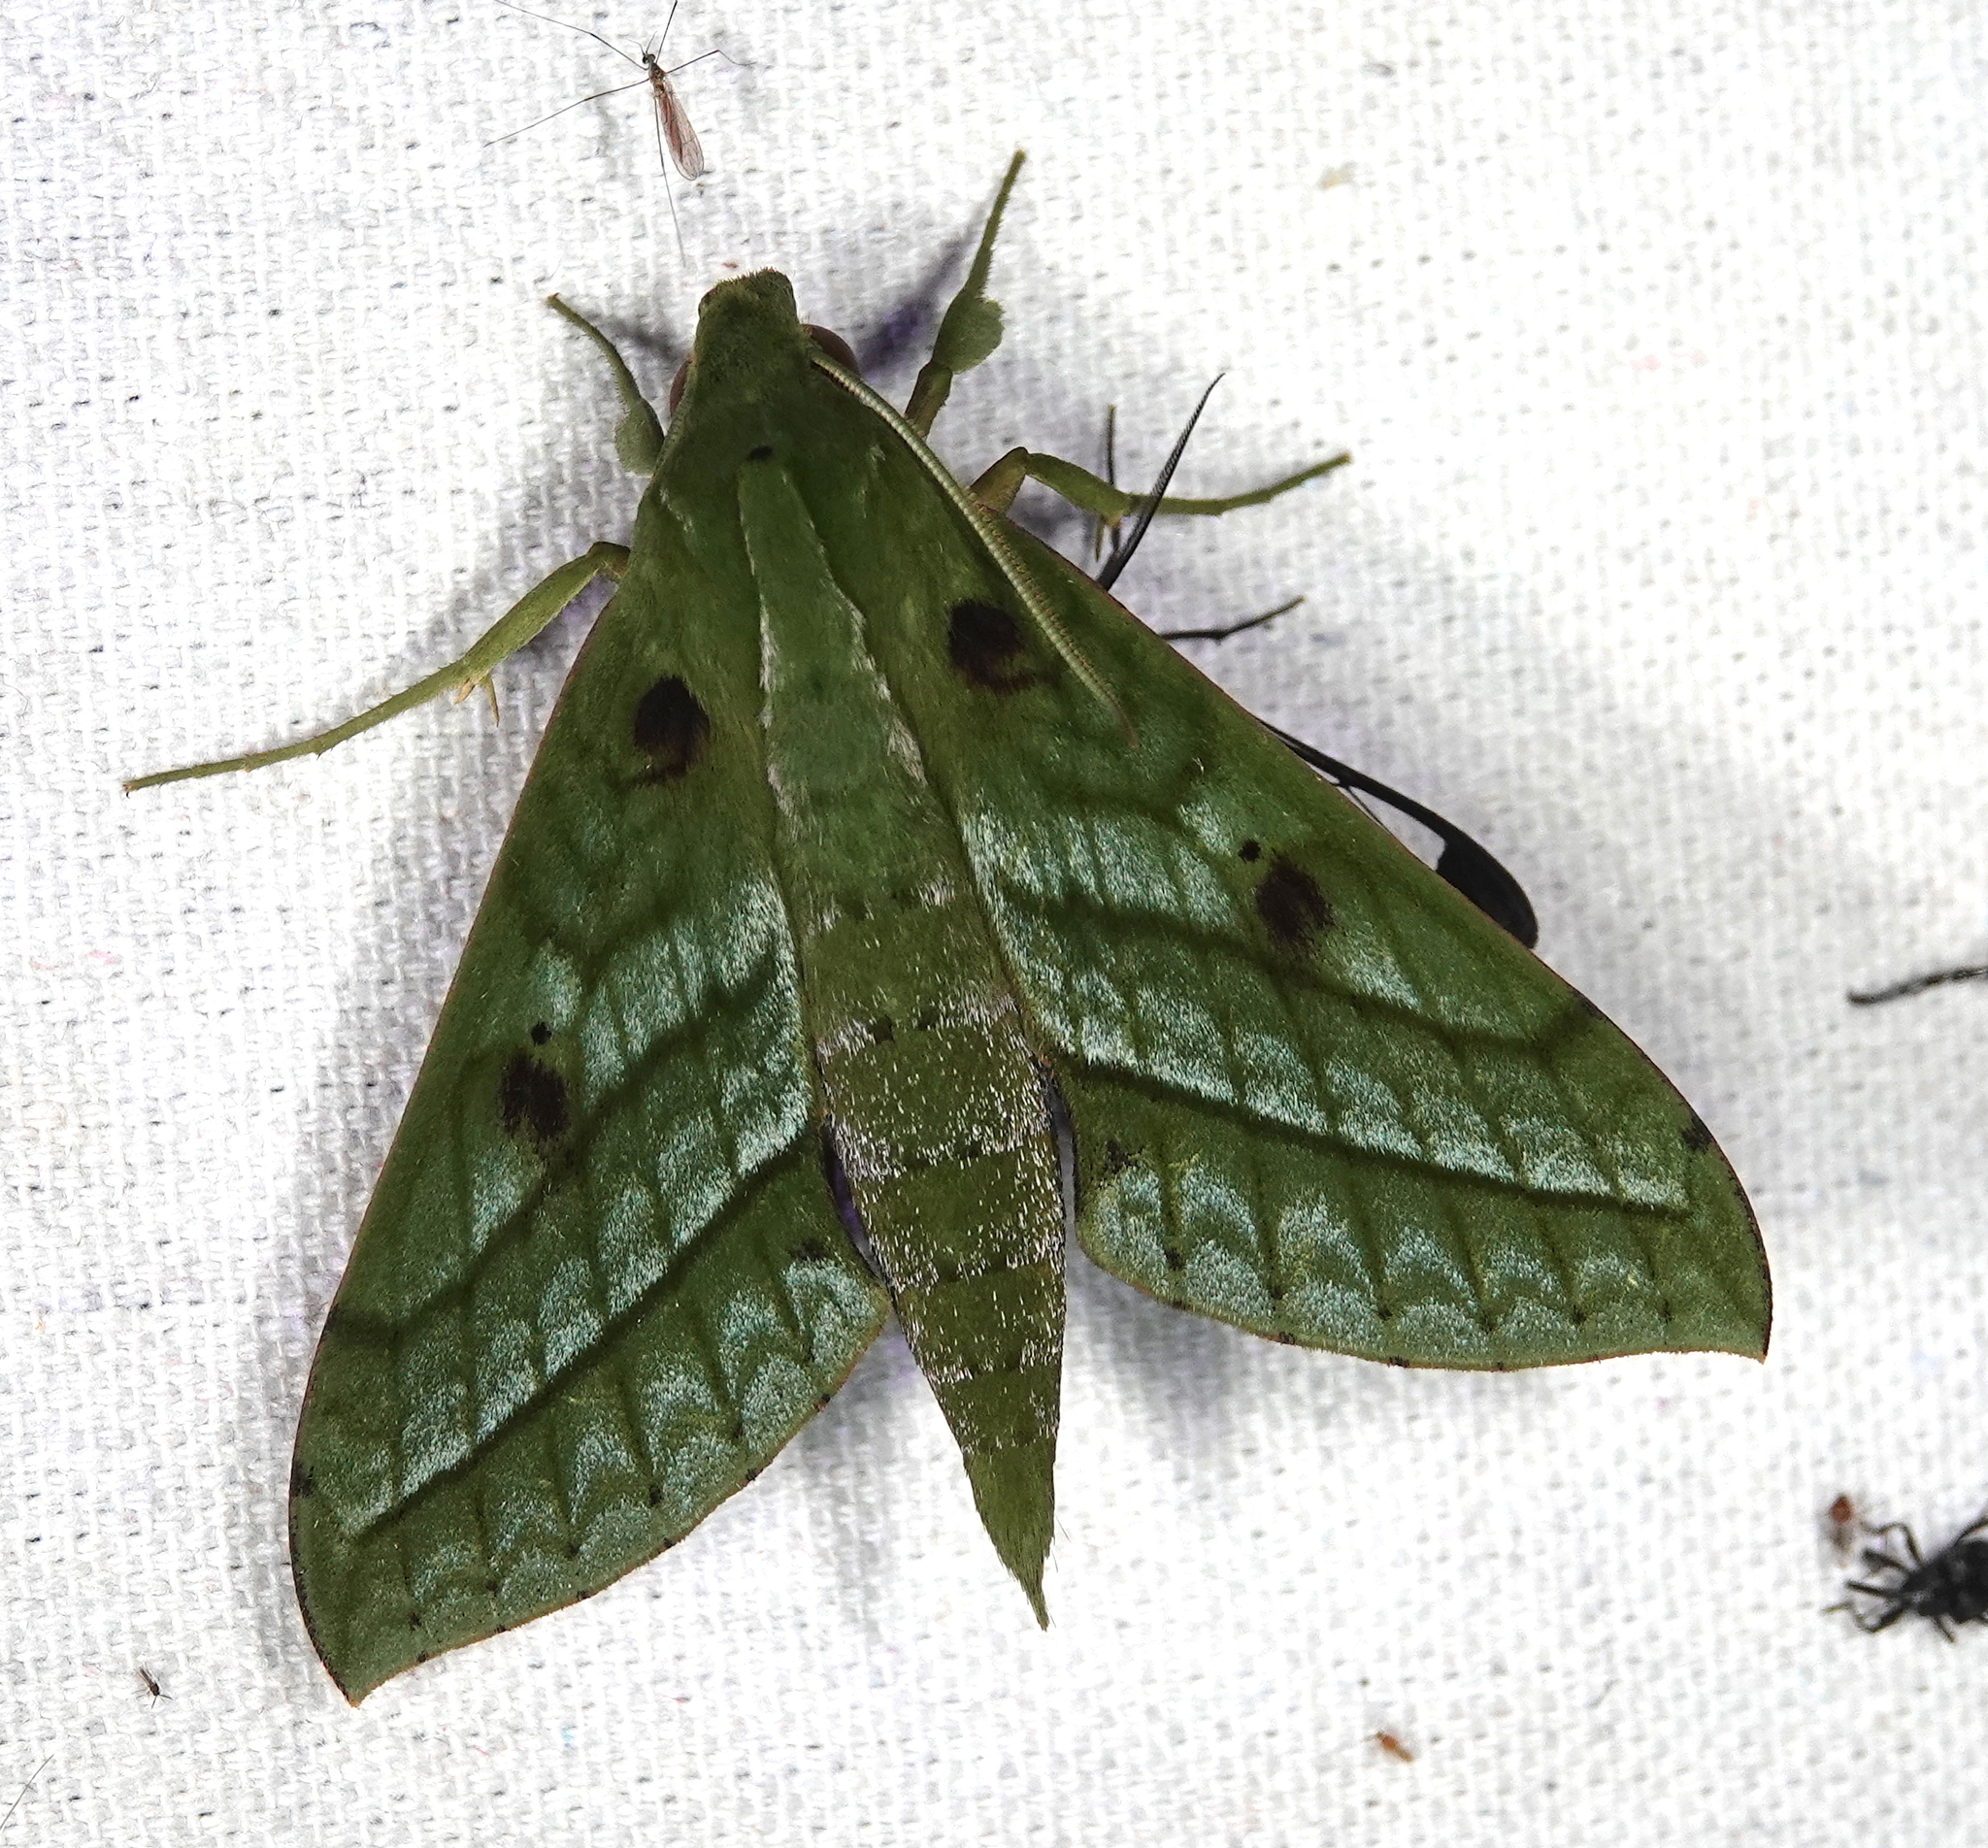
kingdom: Animalia
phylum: Arthropoda
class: Insecta
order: Lepidoptera
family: Sphingidae
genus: Xylophanes
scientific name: Xylophanes mirabilis
